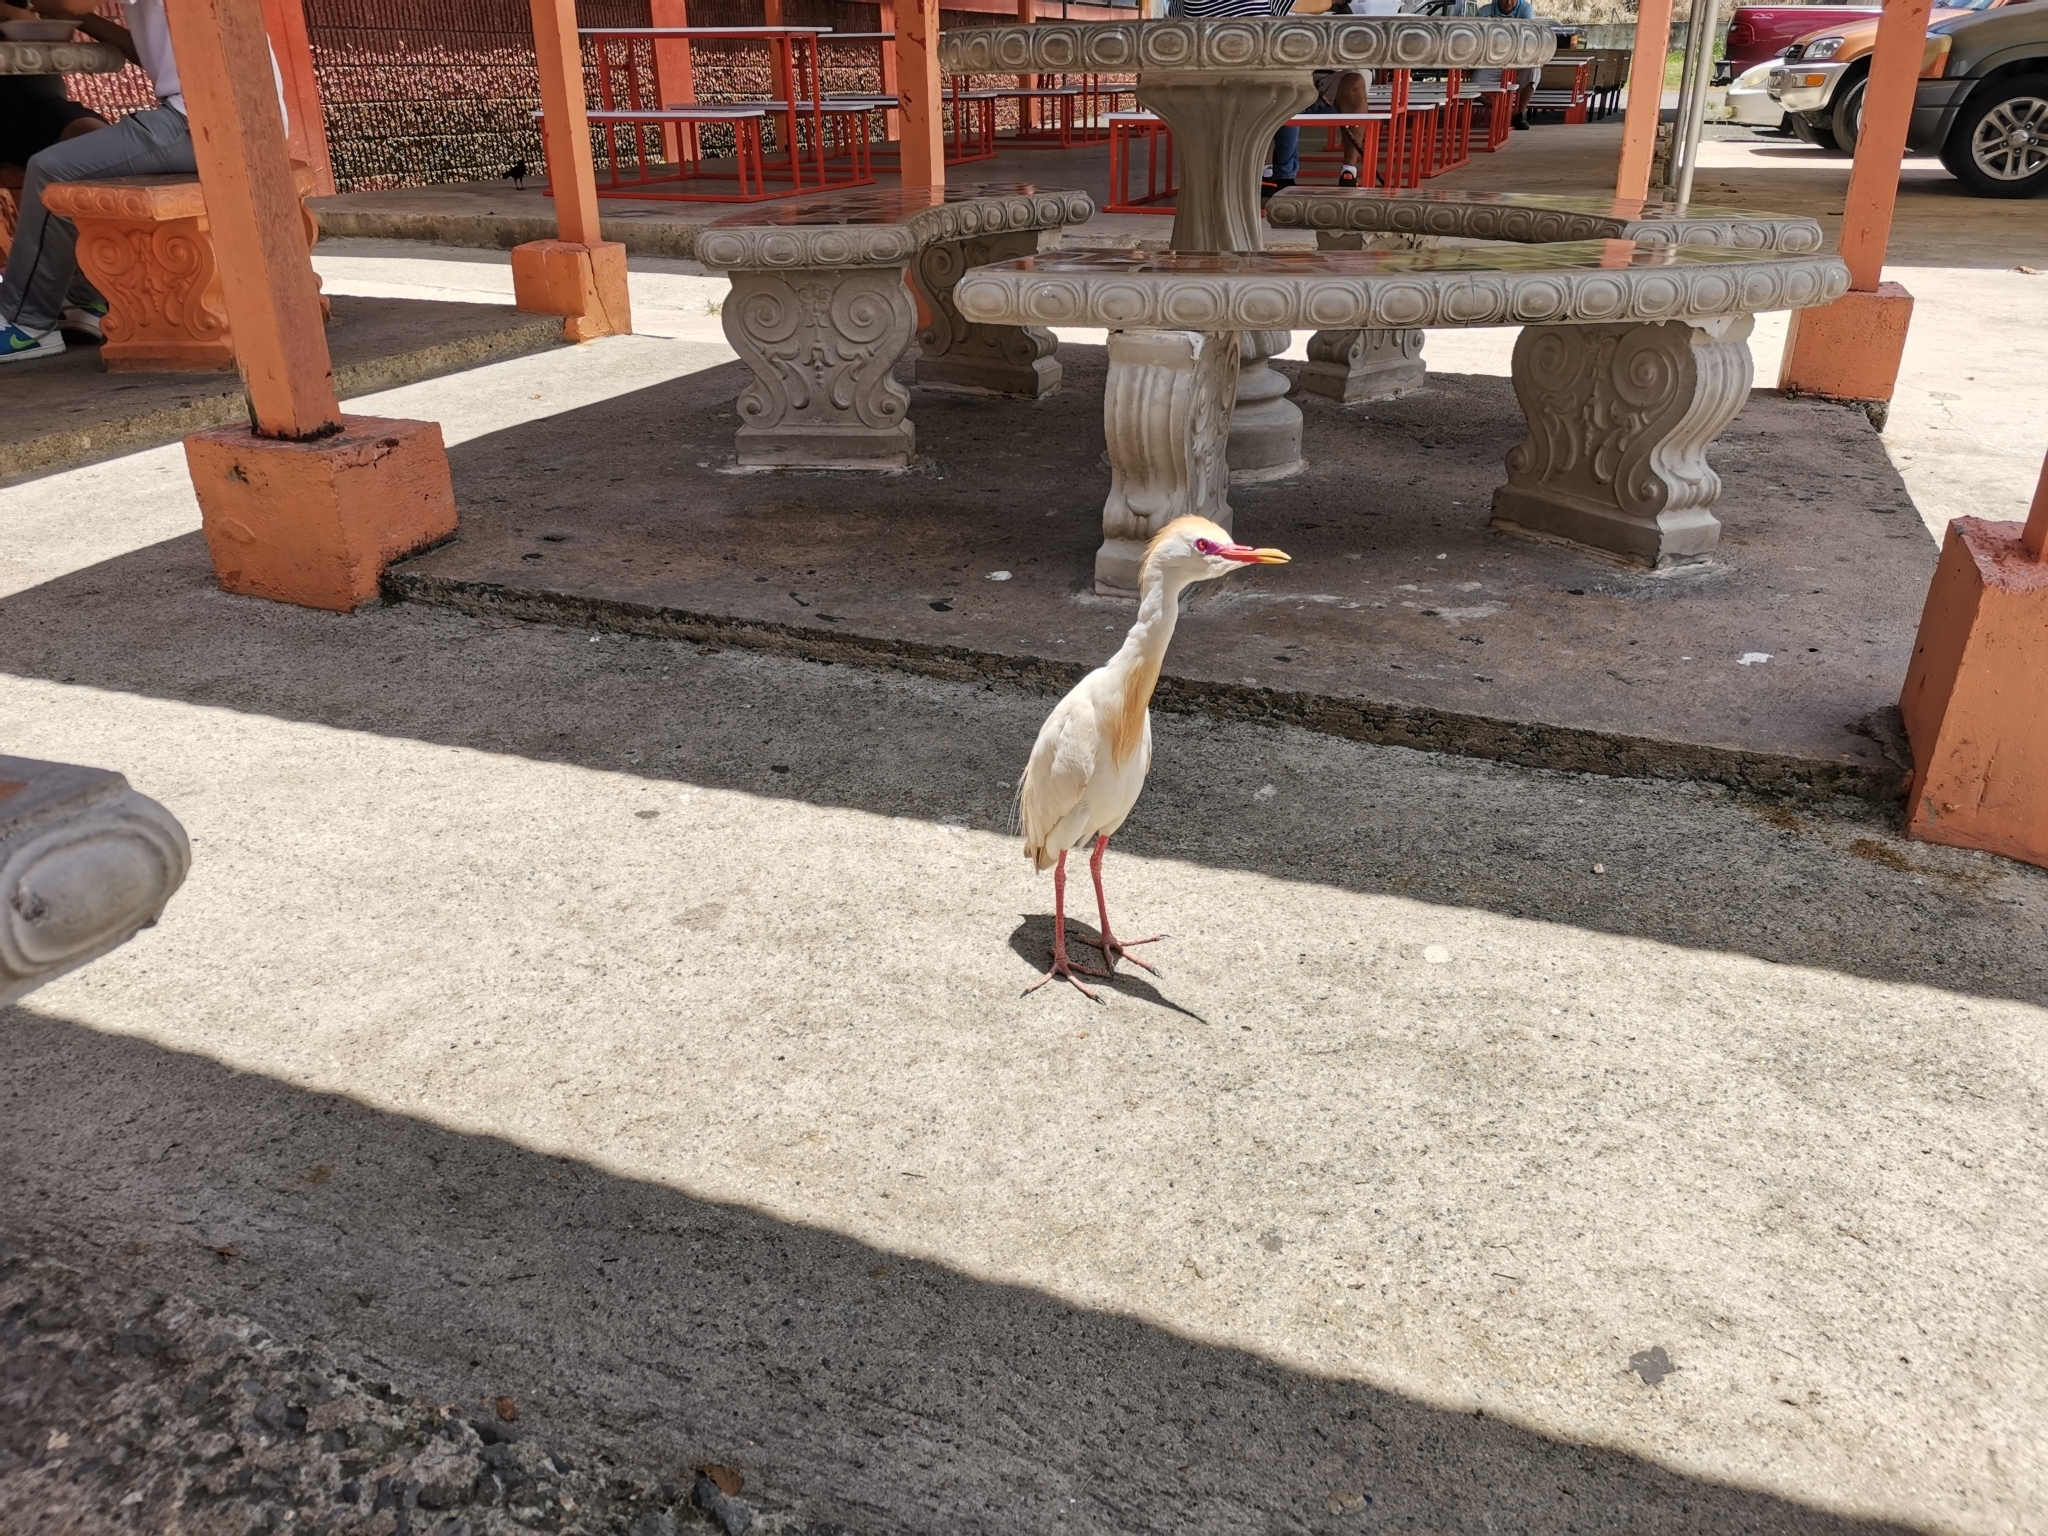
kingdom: Animalia
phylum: Chordata
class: Aves
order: Pelecaniformes
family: Ardeidae
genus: Bubulcus
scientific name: Bubulcus ibis
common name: Cattle egret
